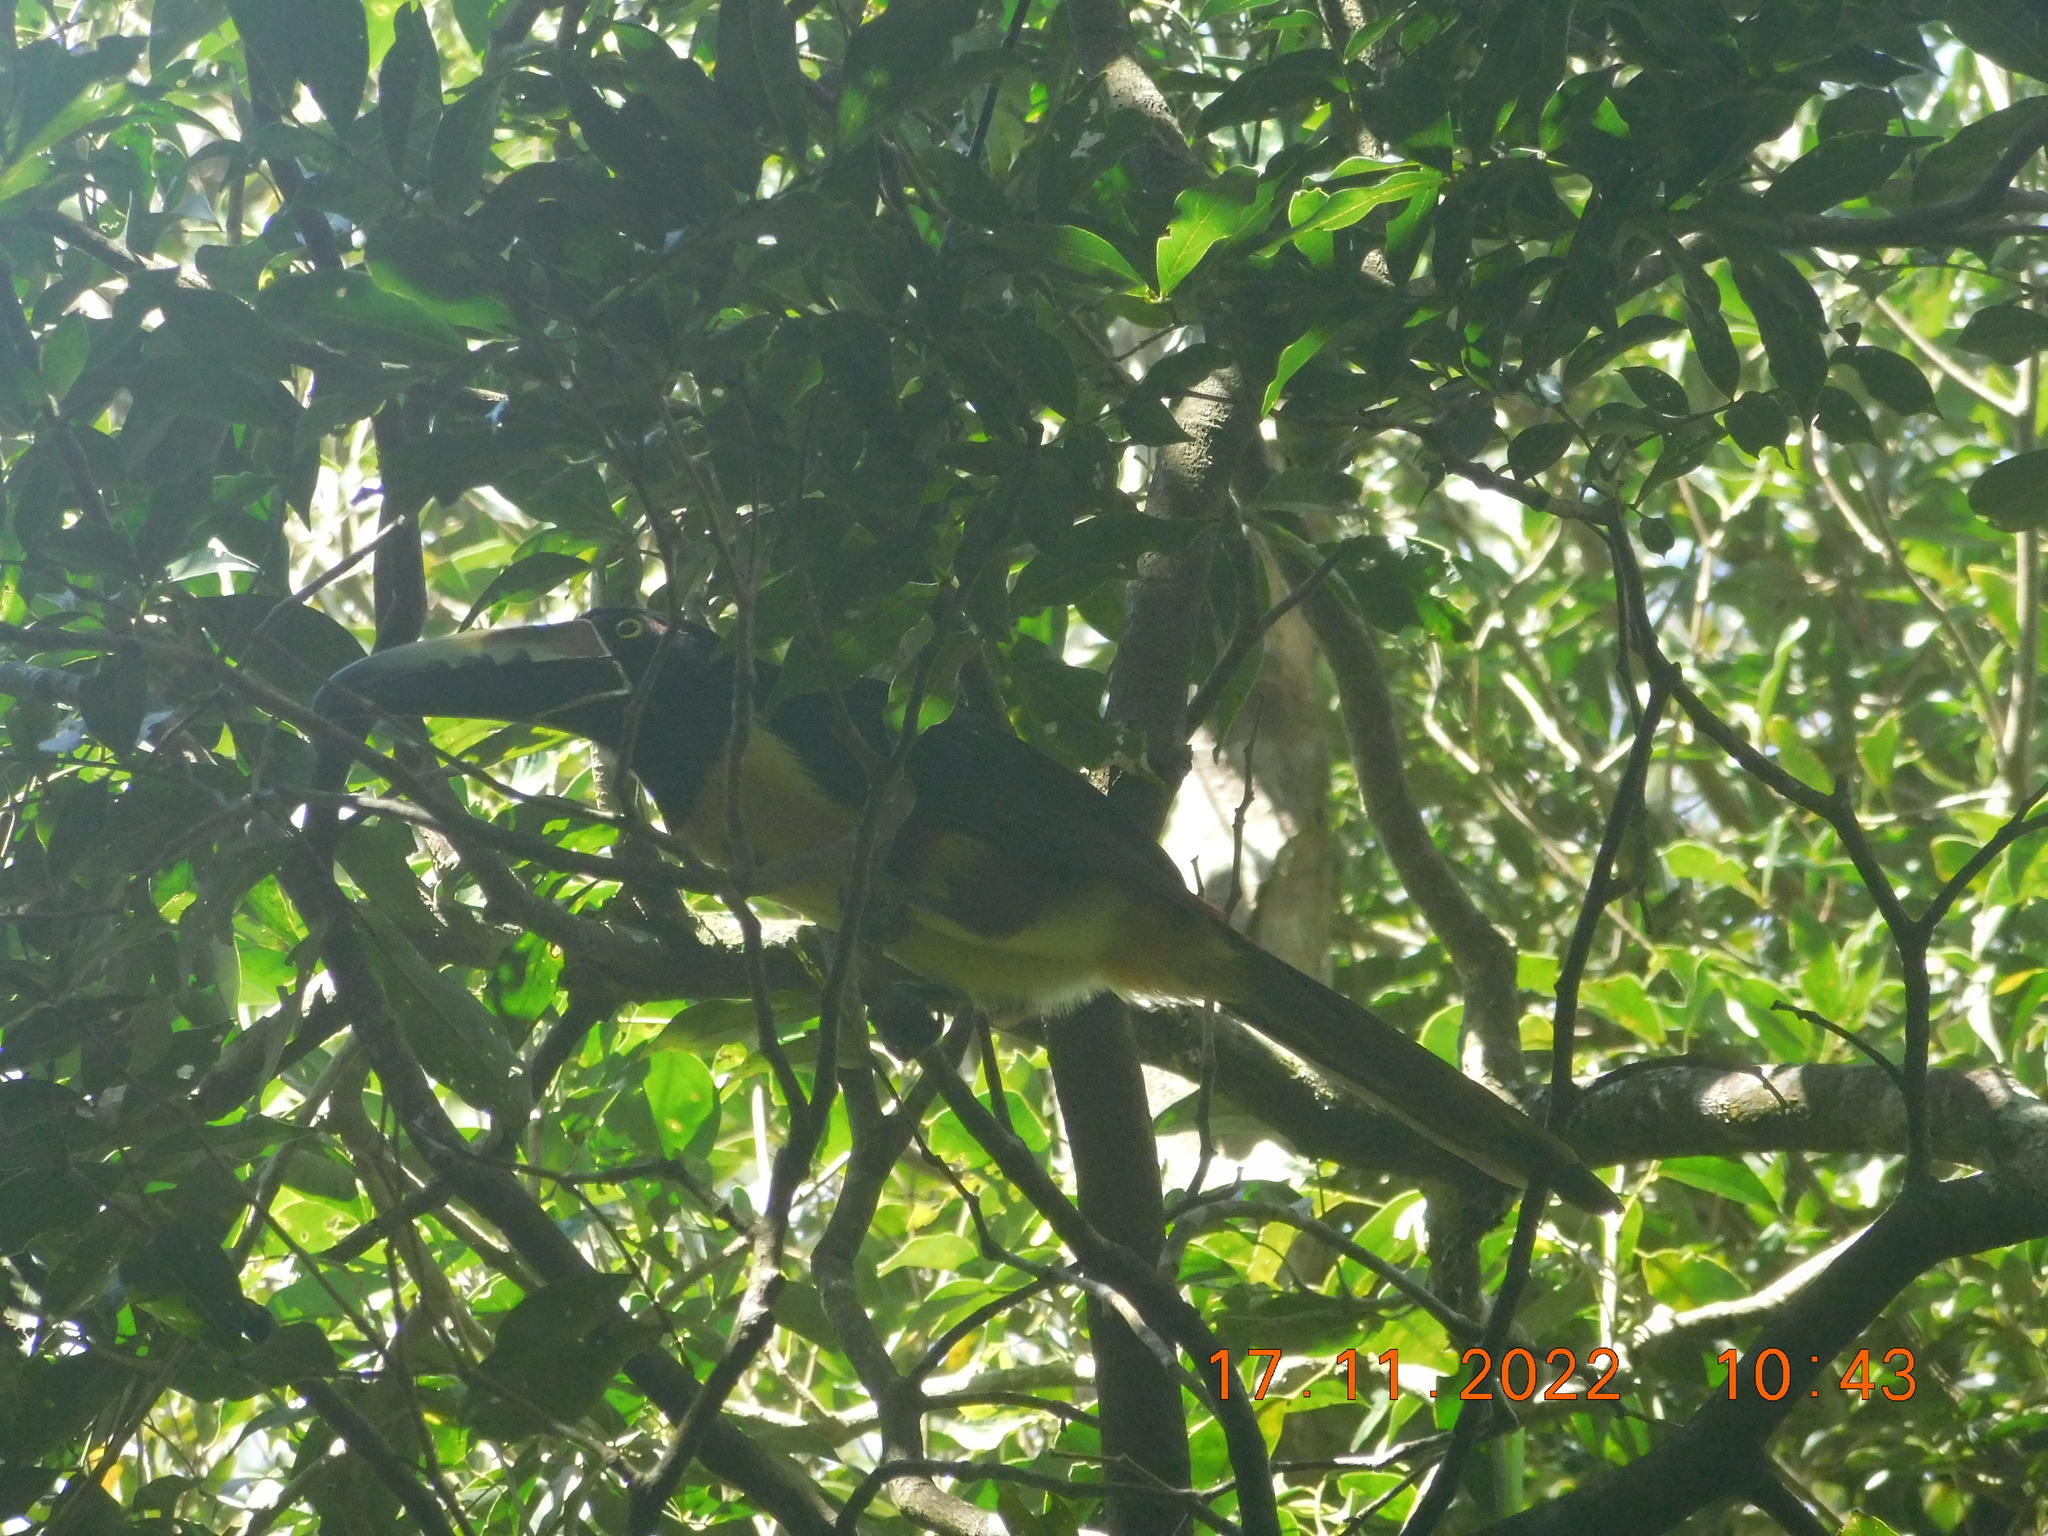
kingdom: Animalia
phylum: Chordata
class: Aves
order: Piciformes
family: Ramphastidae
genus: Pteroglossus
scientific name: Pteroglossus torquatus
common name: Collared aracari
